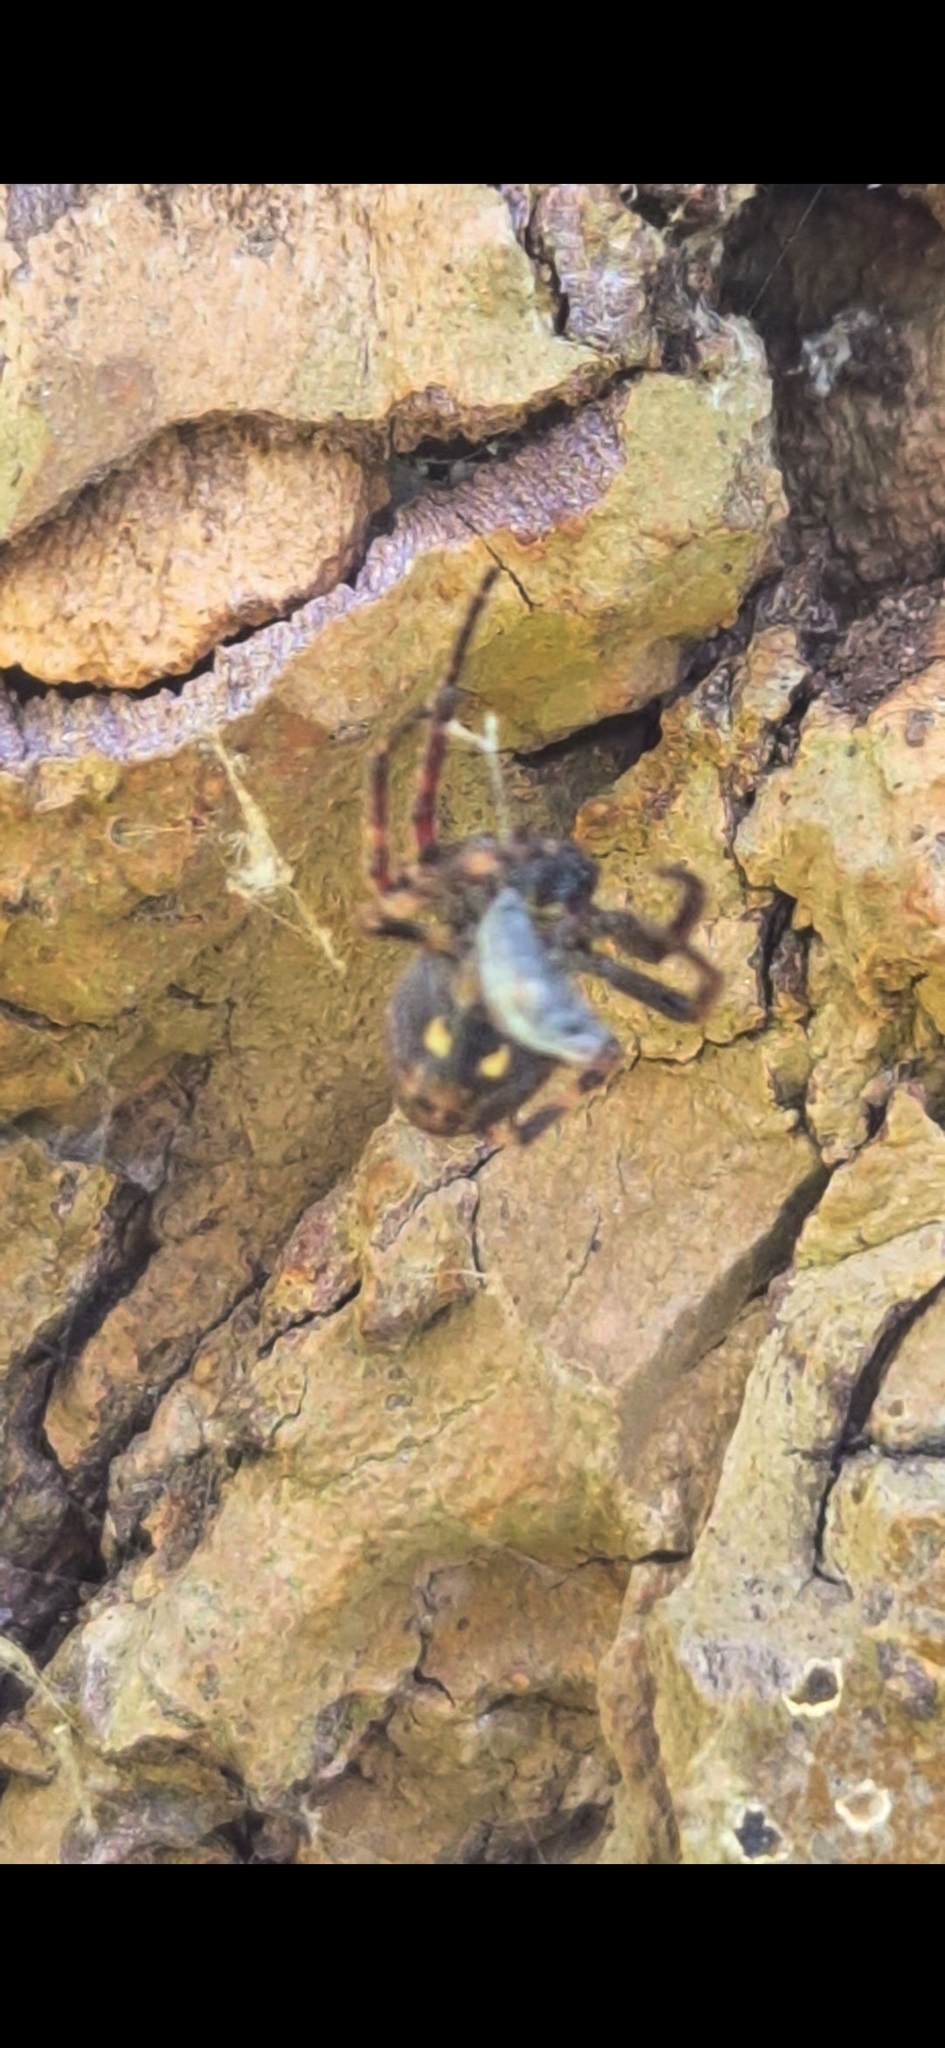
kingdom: Animalia
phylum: Arthropoda
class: Arachnida
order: Araneae
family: Araneidae
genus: Nuctenea
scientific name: Nuctenea umbratica
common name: Toad spider
